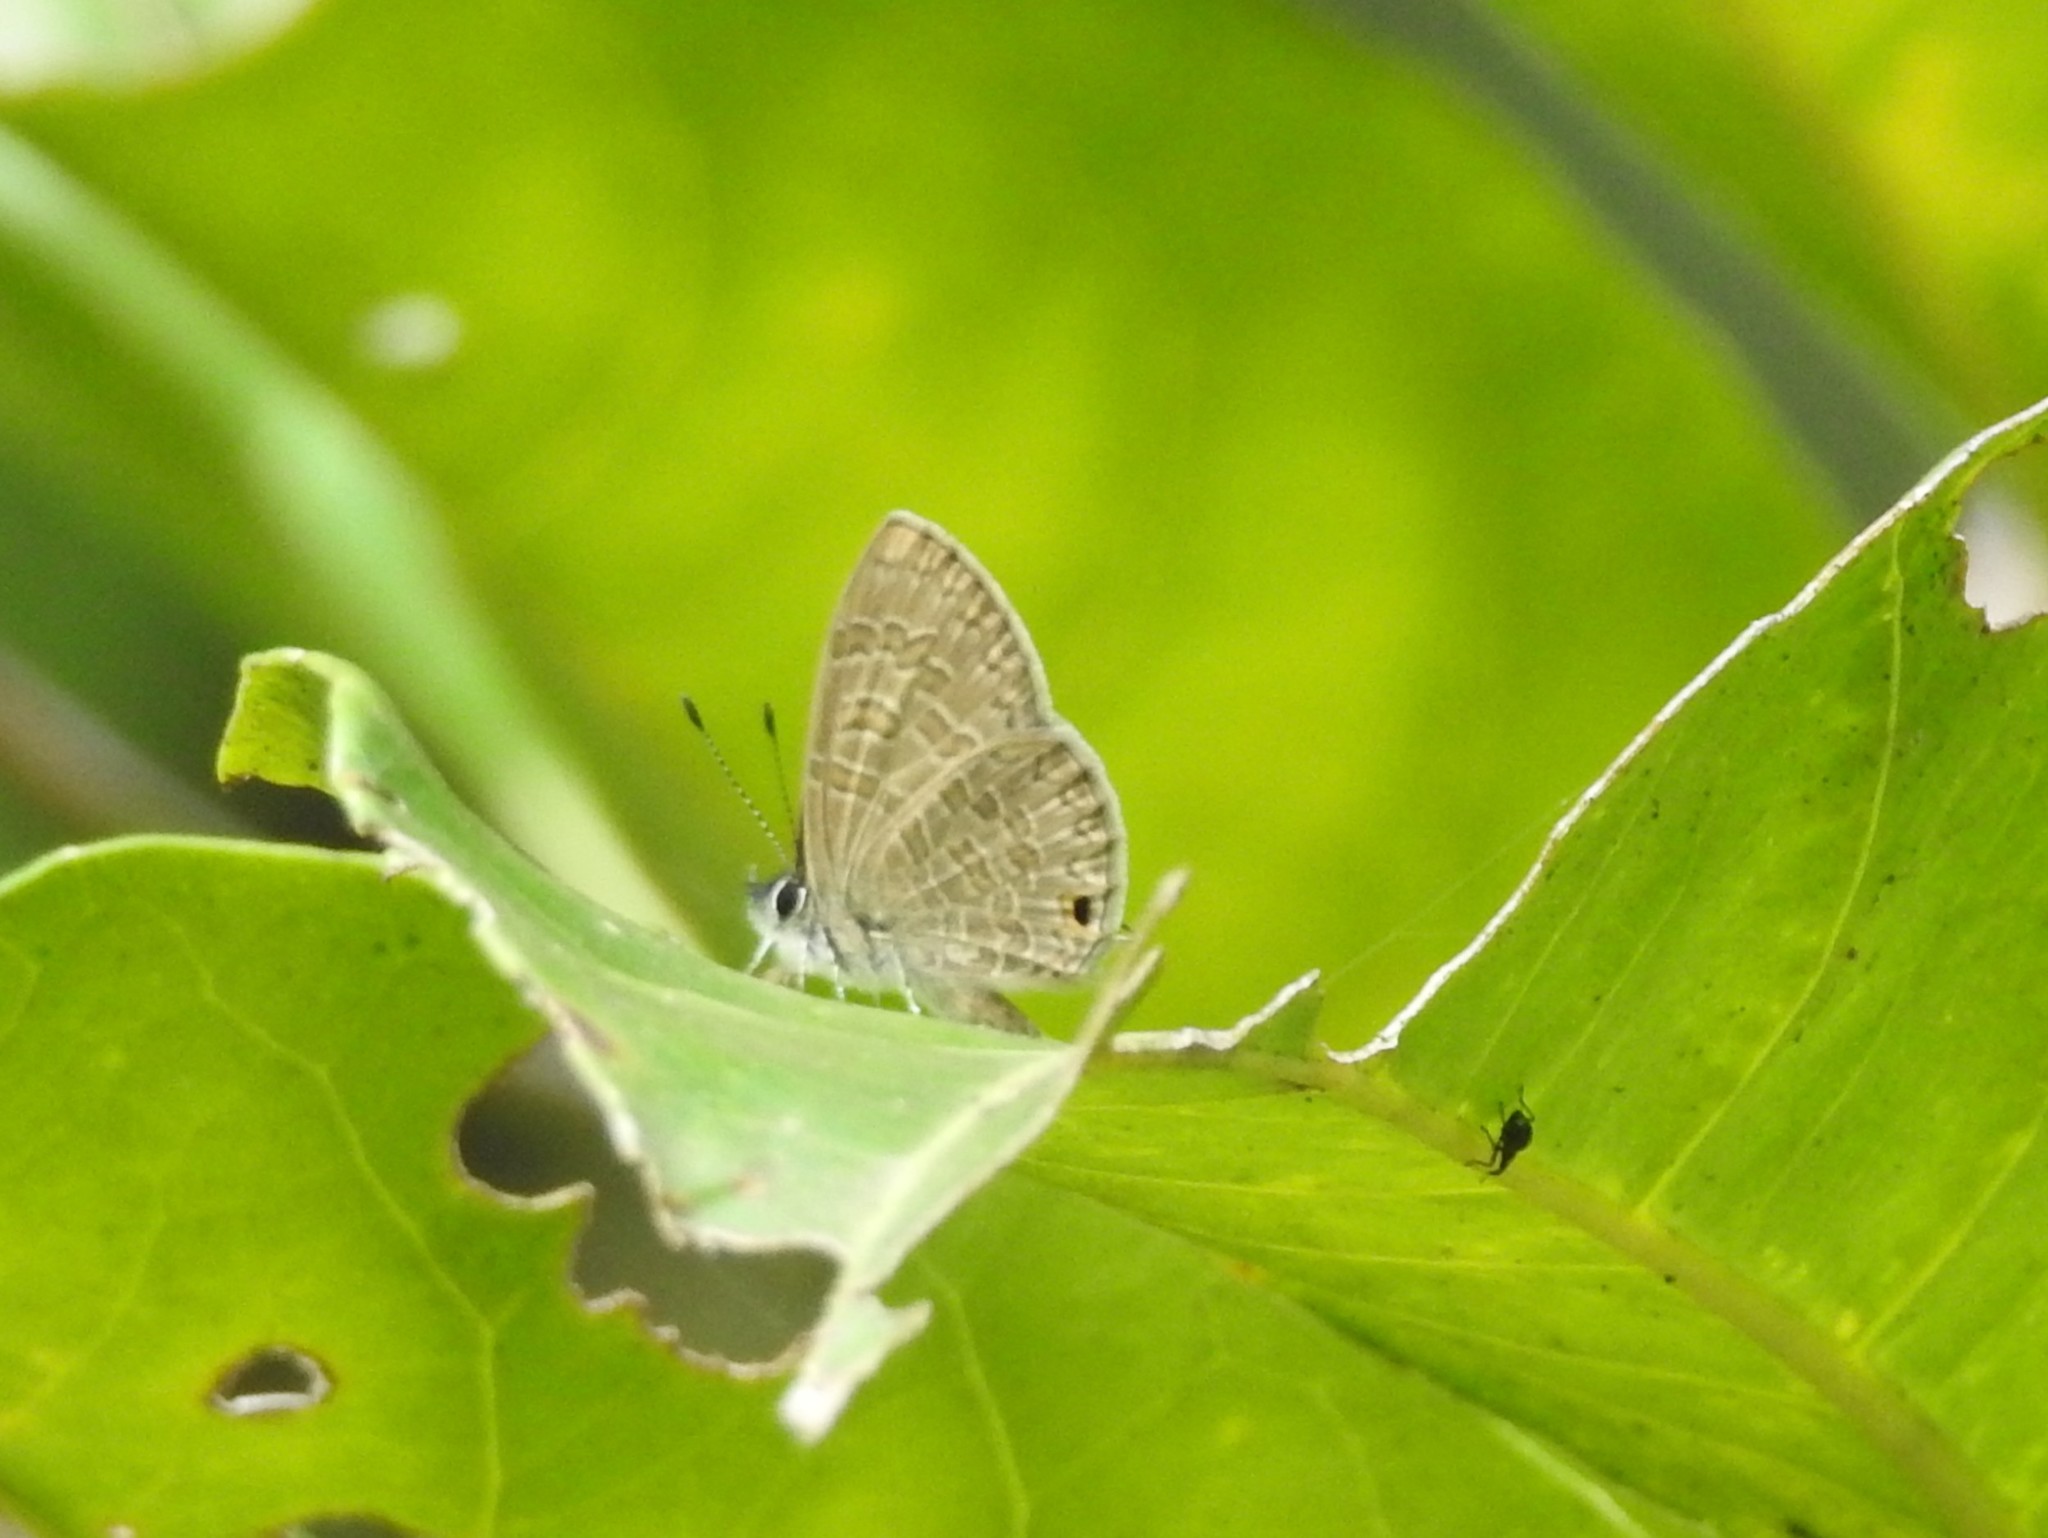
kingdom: Animalia
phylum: Arthropoda
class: Insecta
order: Lepidoptera
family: Lycaenidae
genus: Prosotas
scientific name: Prosotas nora
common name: Common line blue
